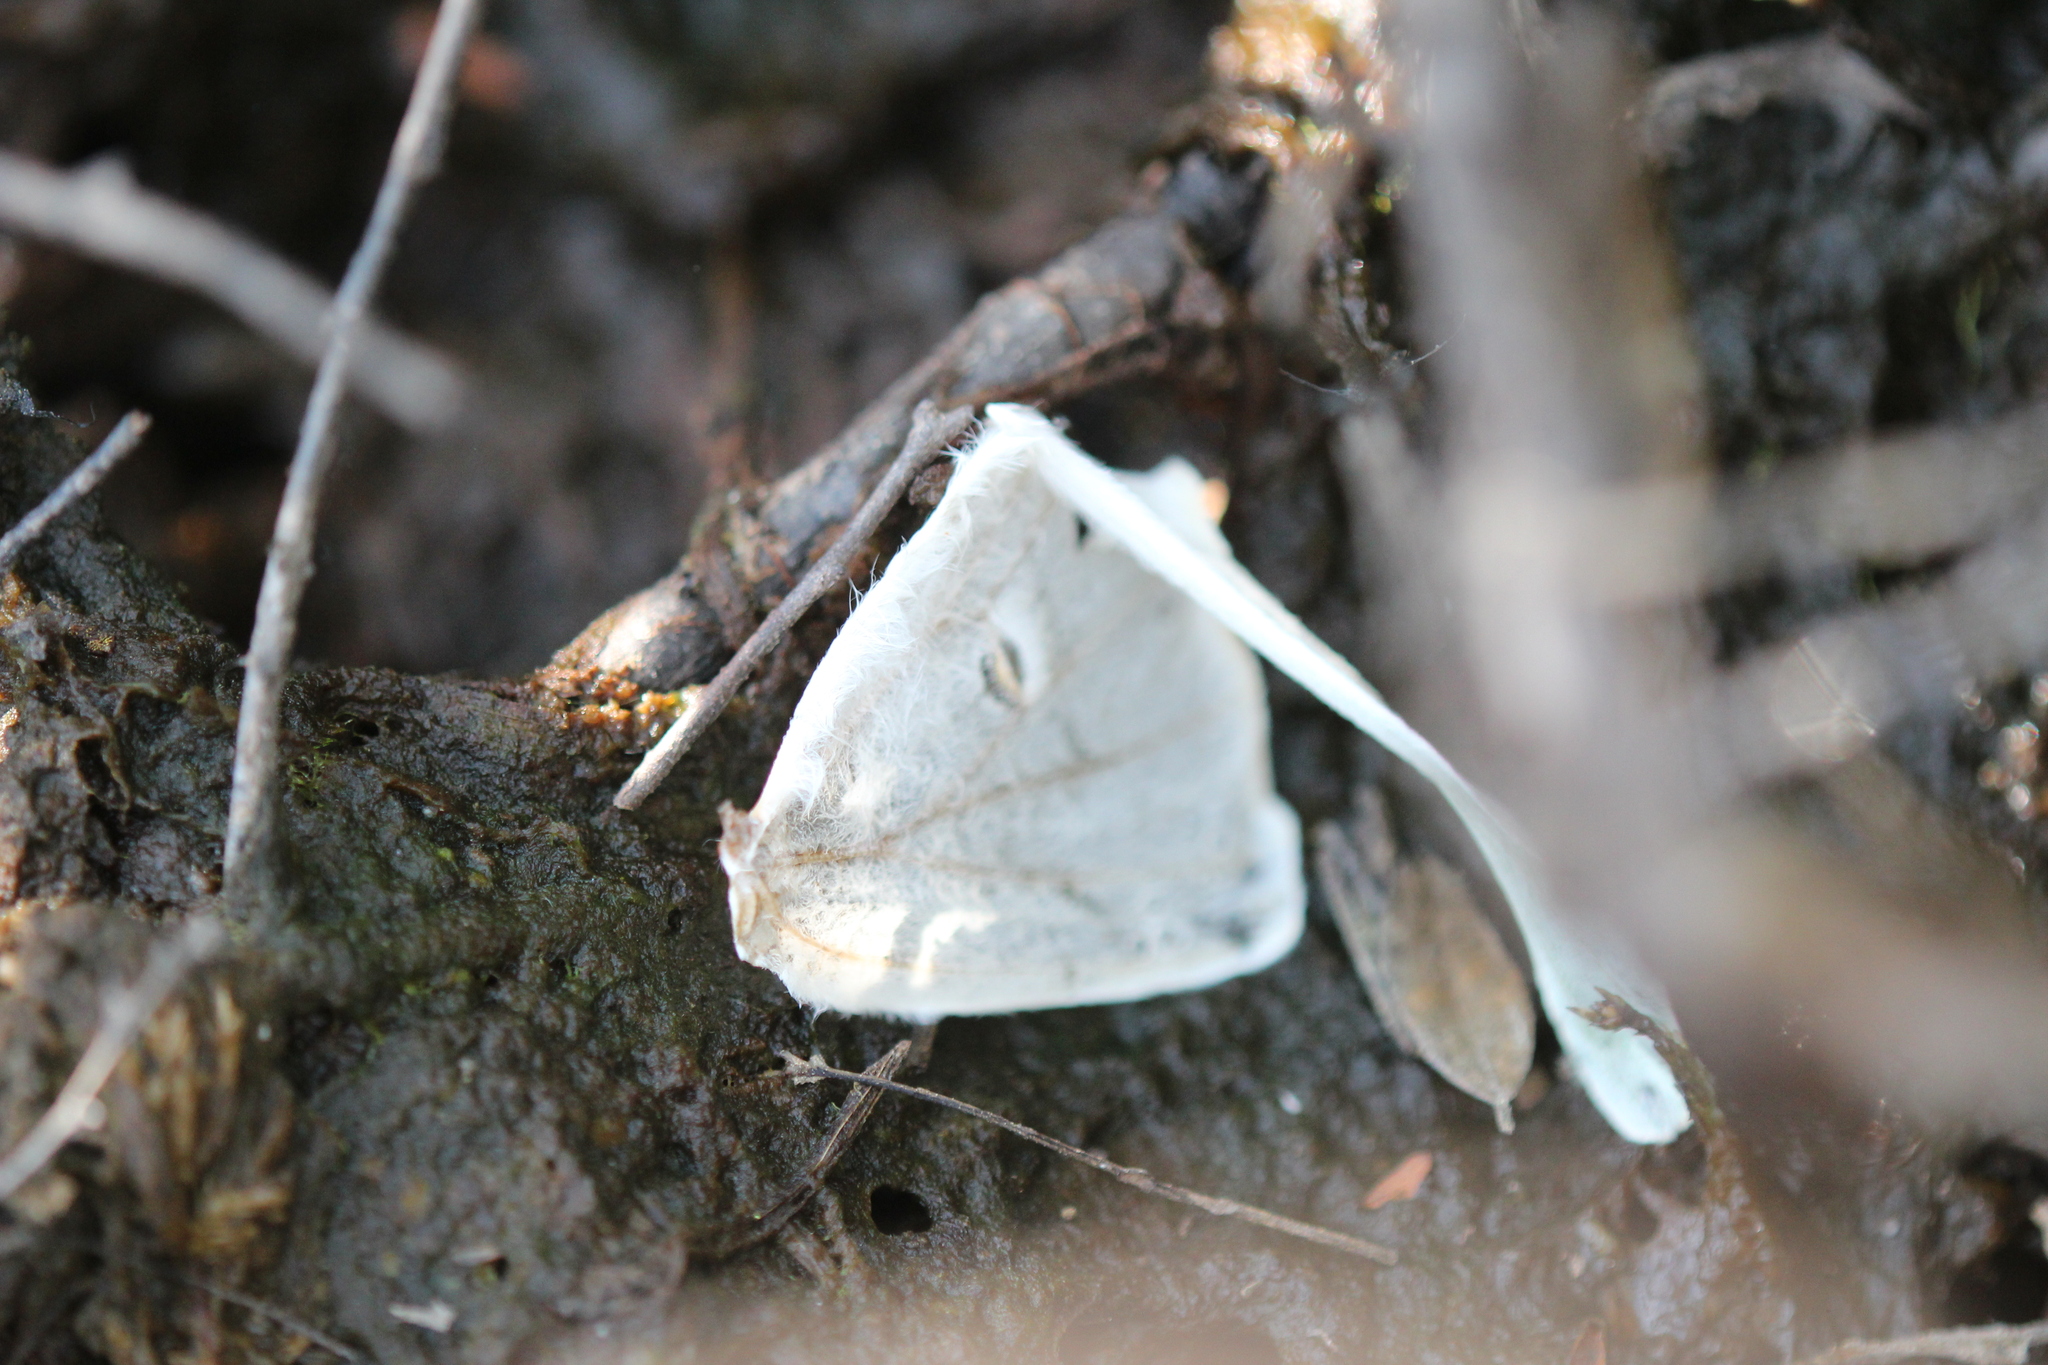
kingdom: Animalia
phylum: Arthropoda
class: Insecta
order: Lepidoptera
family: Saturniidae
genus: Actias
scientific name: Actias luna
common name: Luna moth
